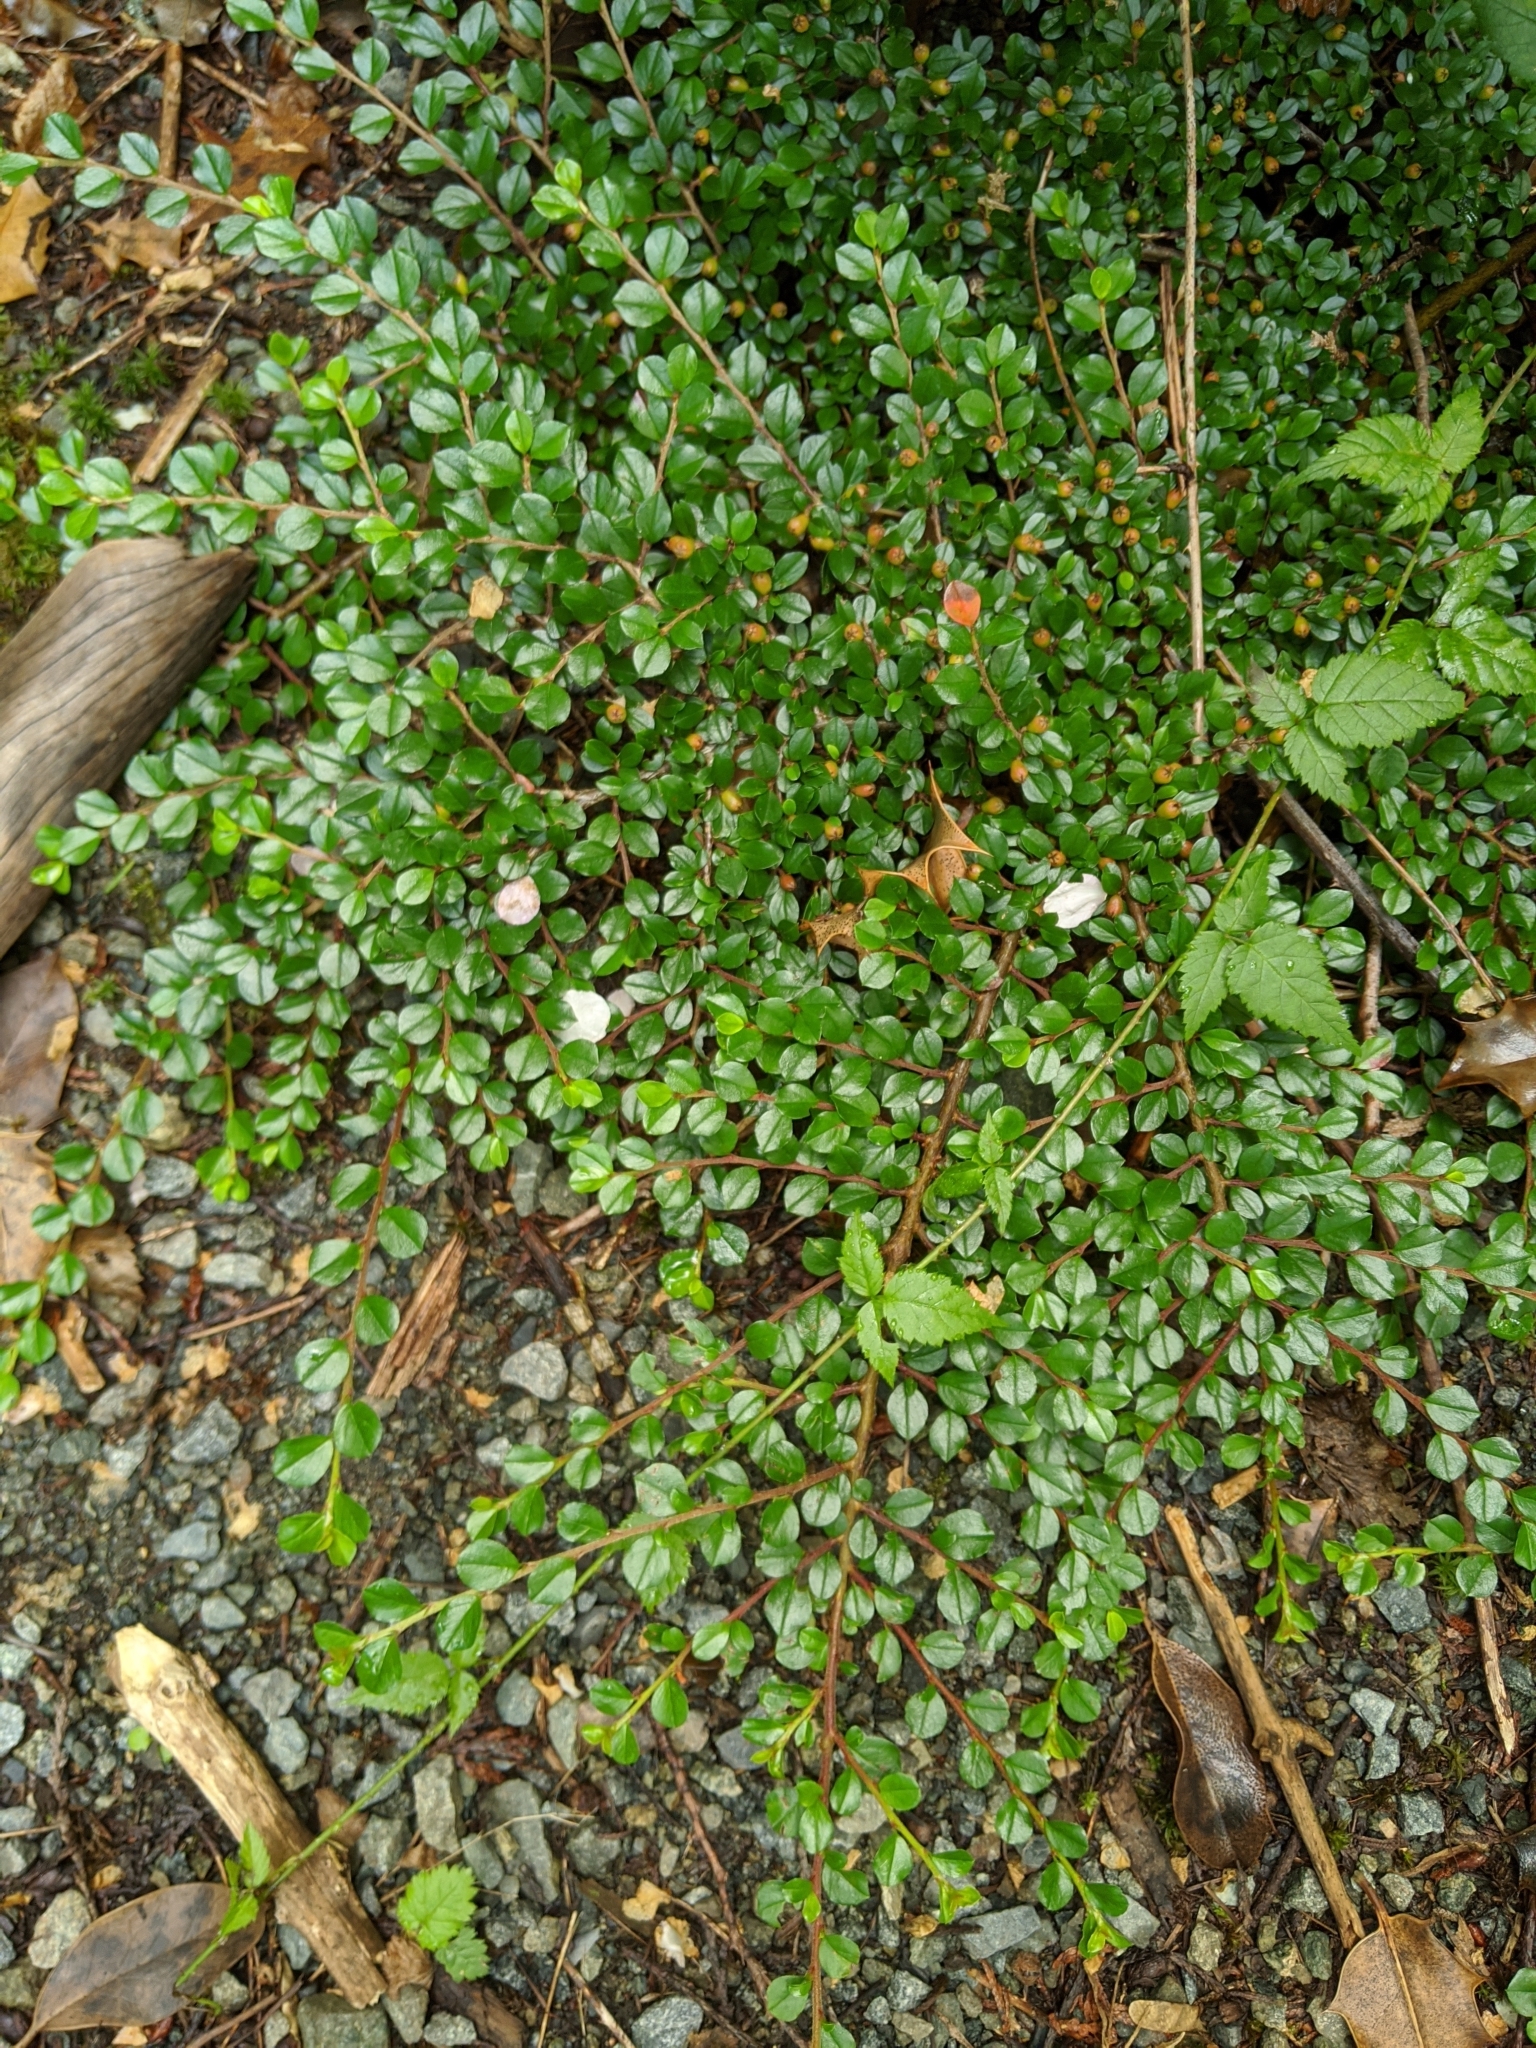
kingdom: Plantae
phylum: Tracheophyta
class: Magnoliopsida
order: Rosales
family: Rosaceae
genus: Cotoneaster
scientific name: Cotoneaster horizontalis
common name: Wall cotoneaster
